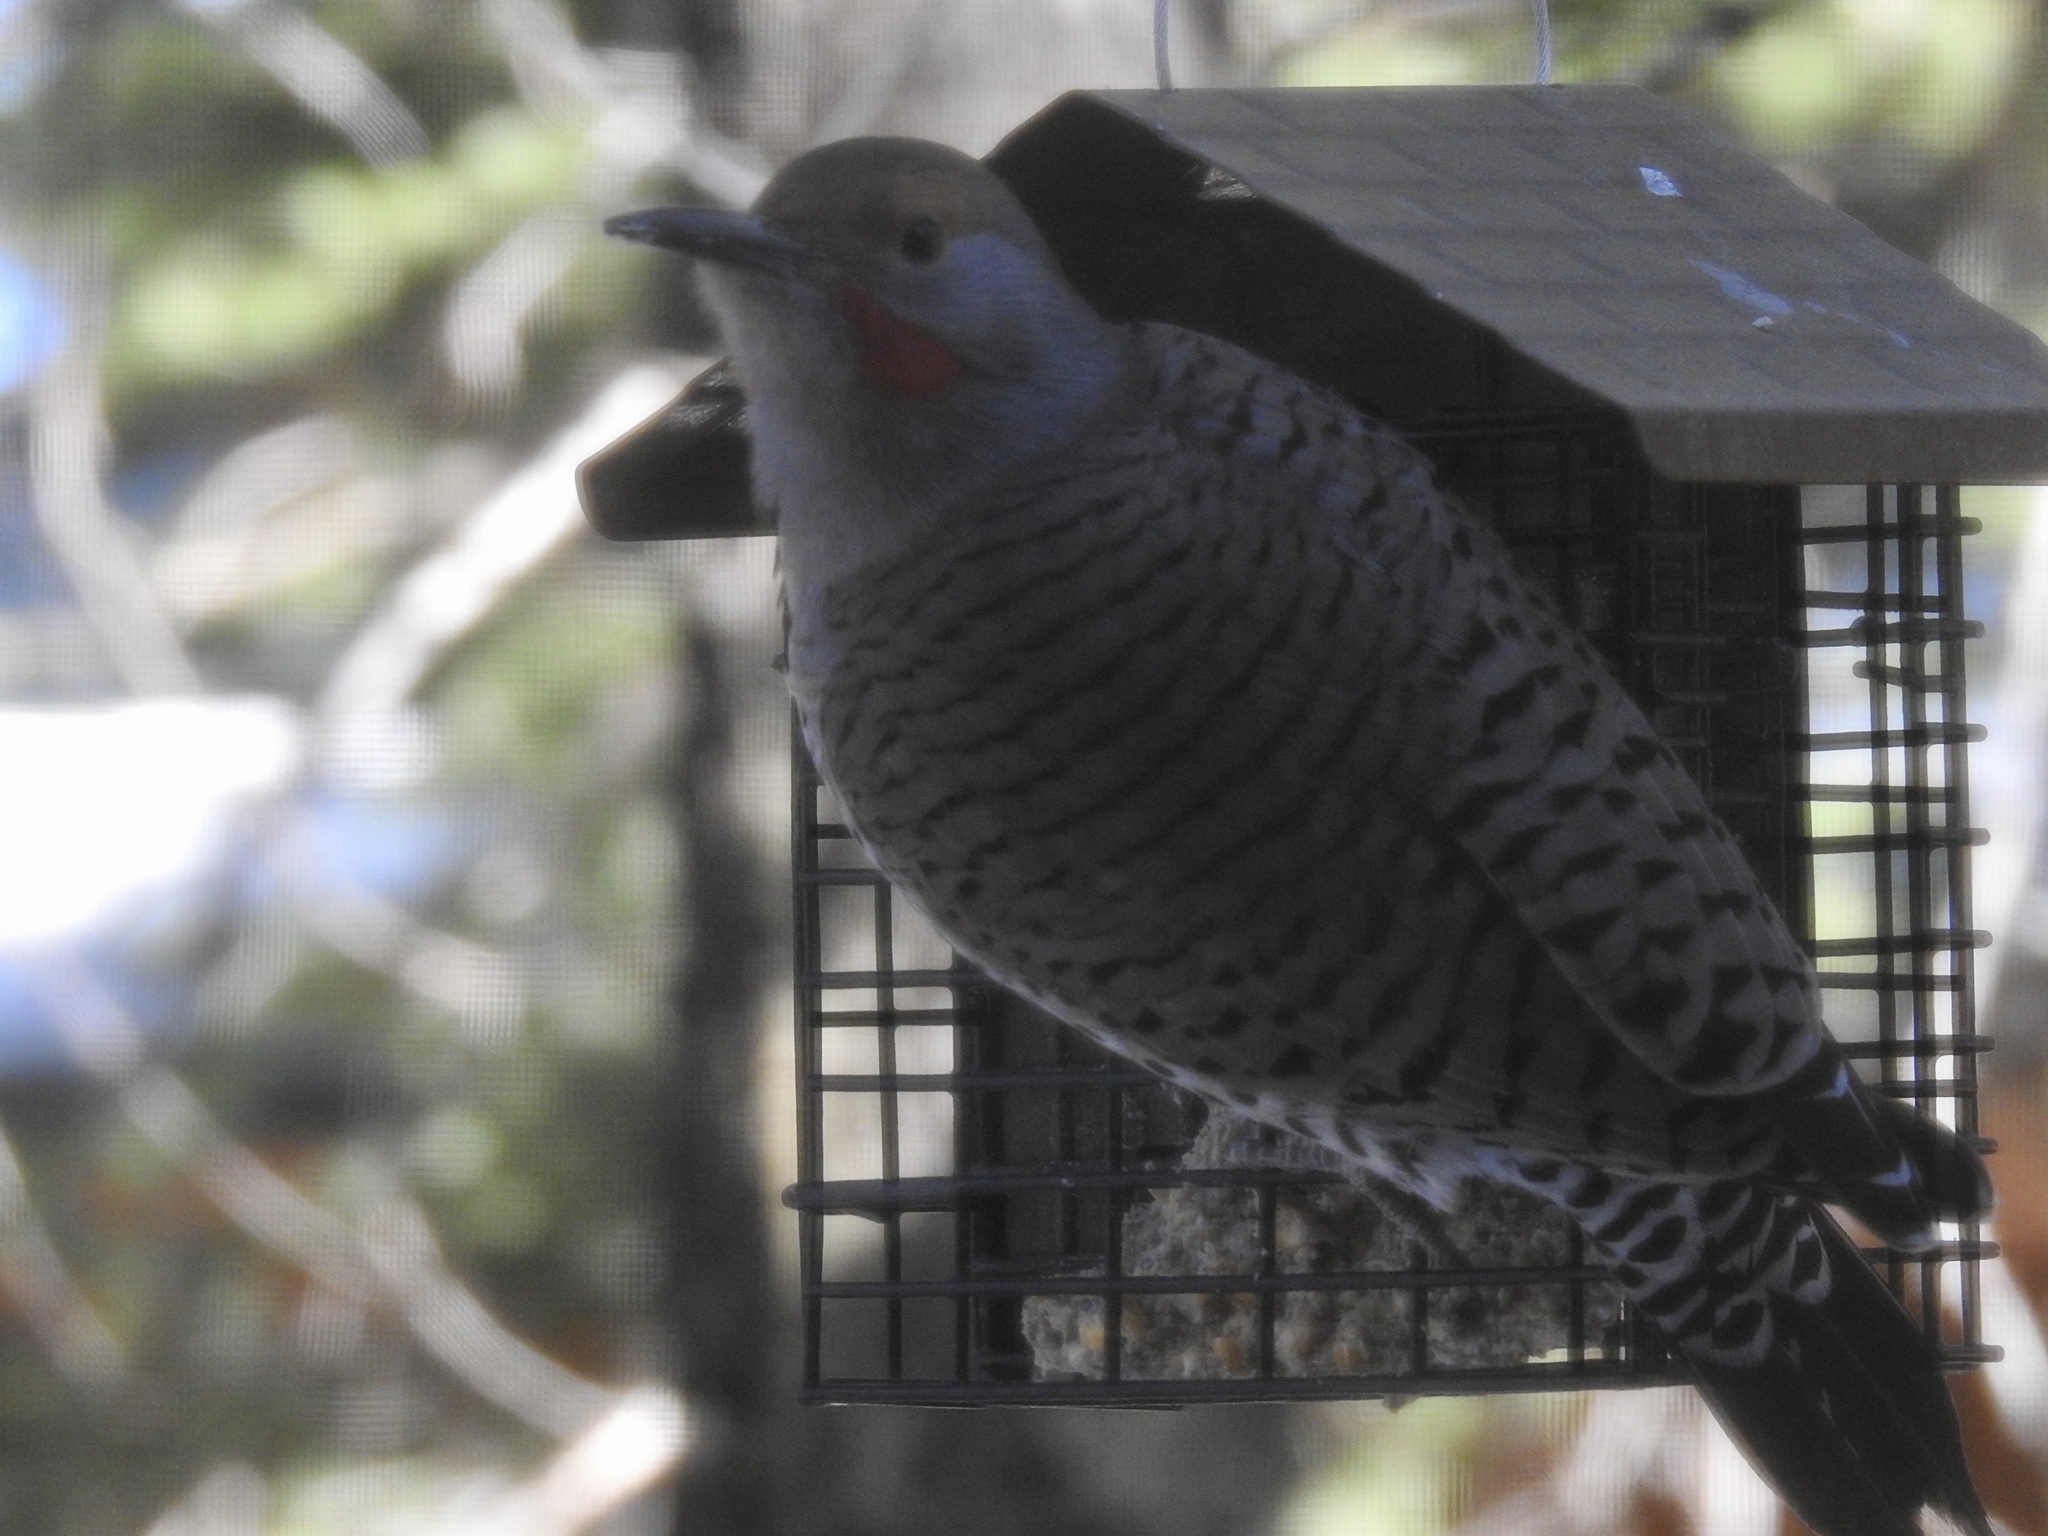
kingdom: Animalia
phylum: Chordata
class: Aves
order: Piciformes
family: Picidae
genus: Colaptes
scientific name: Colaptes auratus
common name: Northern flicker
